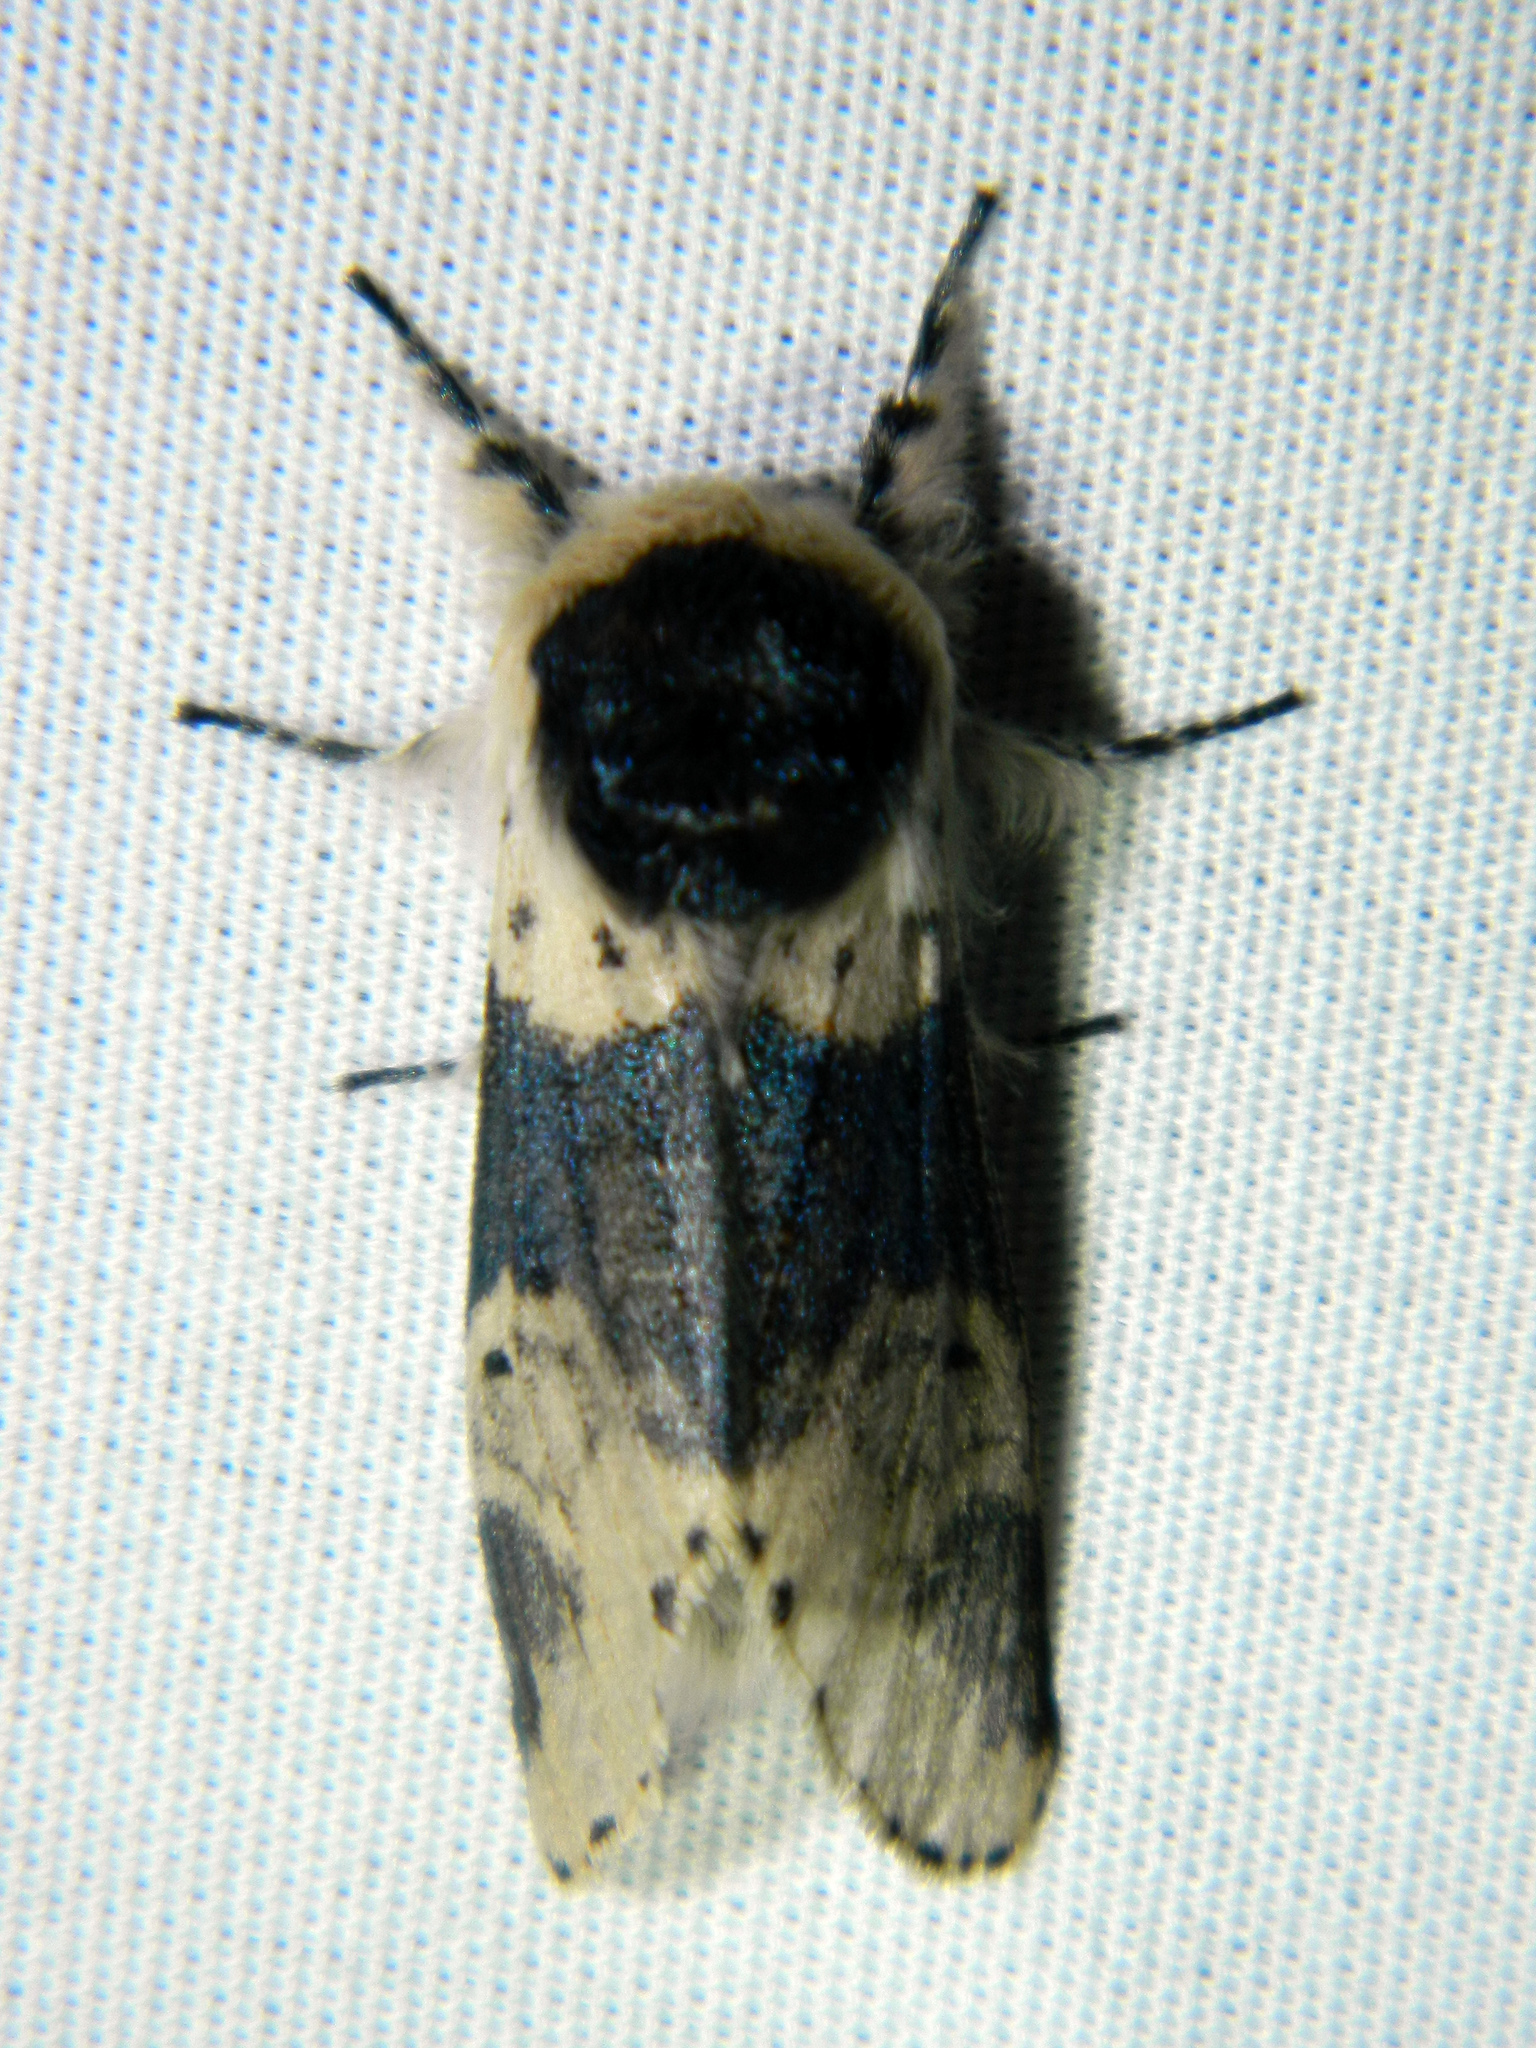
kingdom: Animalia
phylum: Arthropoda
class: Insecta
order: Lepidoptera
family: Notodontidae
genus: Furcula
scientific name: Furcula modesta
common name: Modest furcula moth
